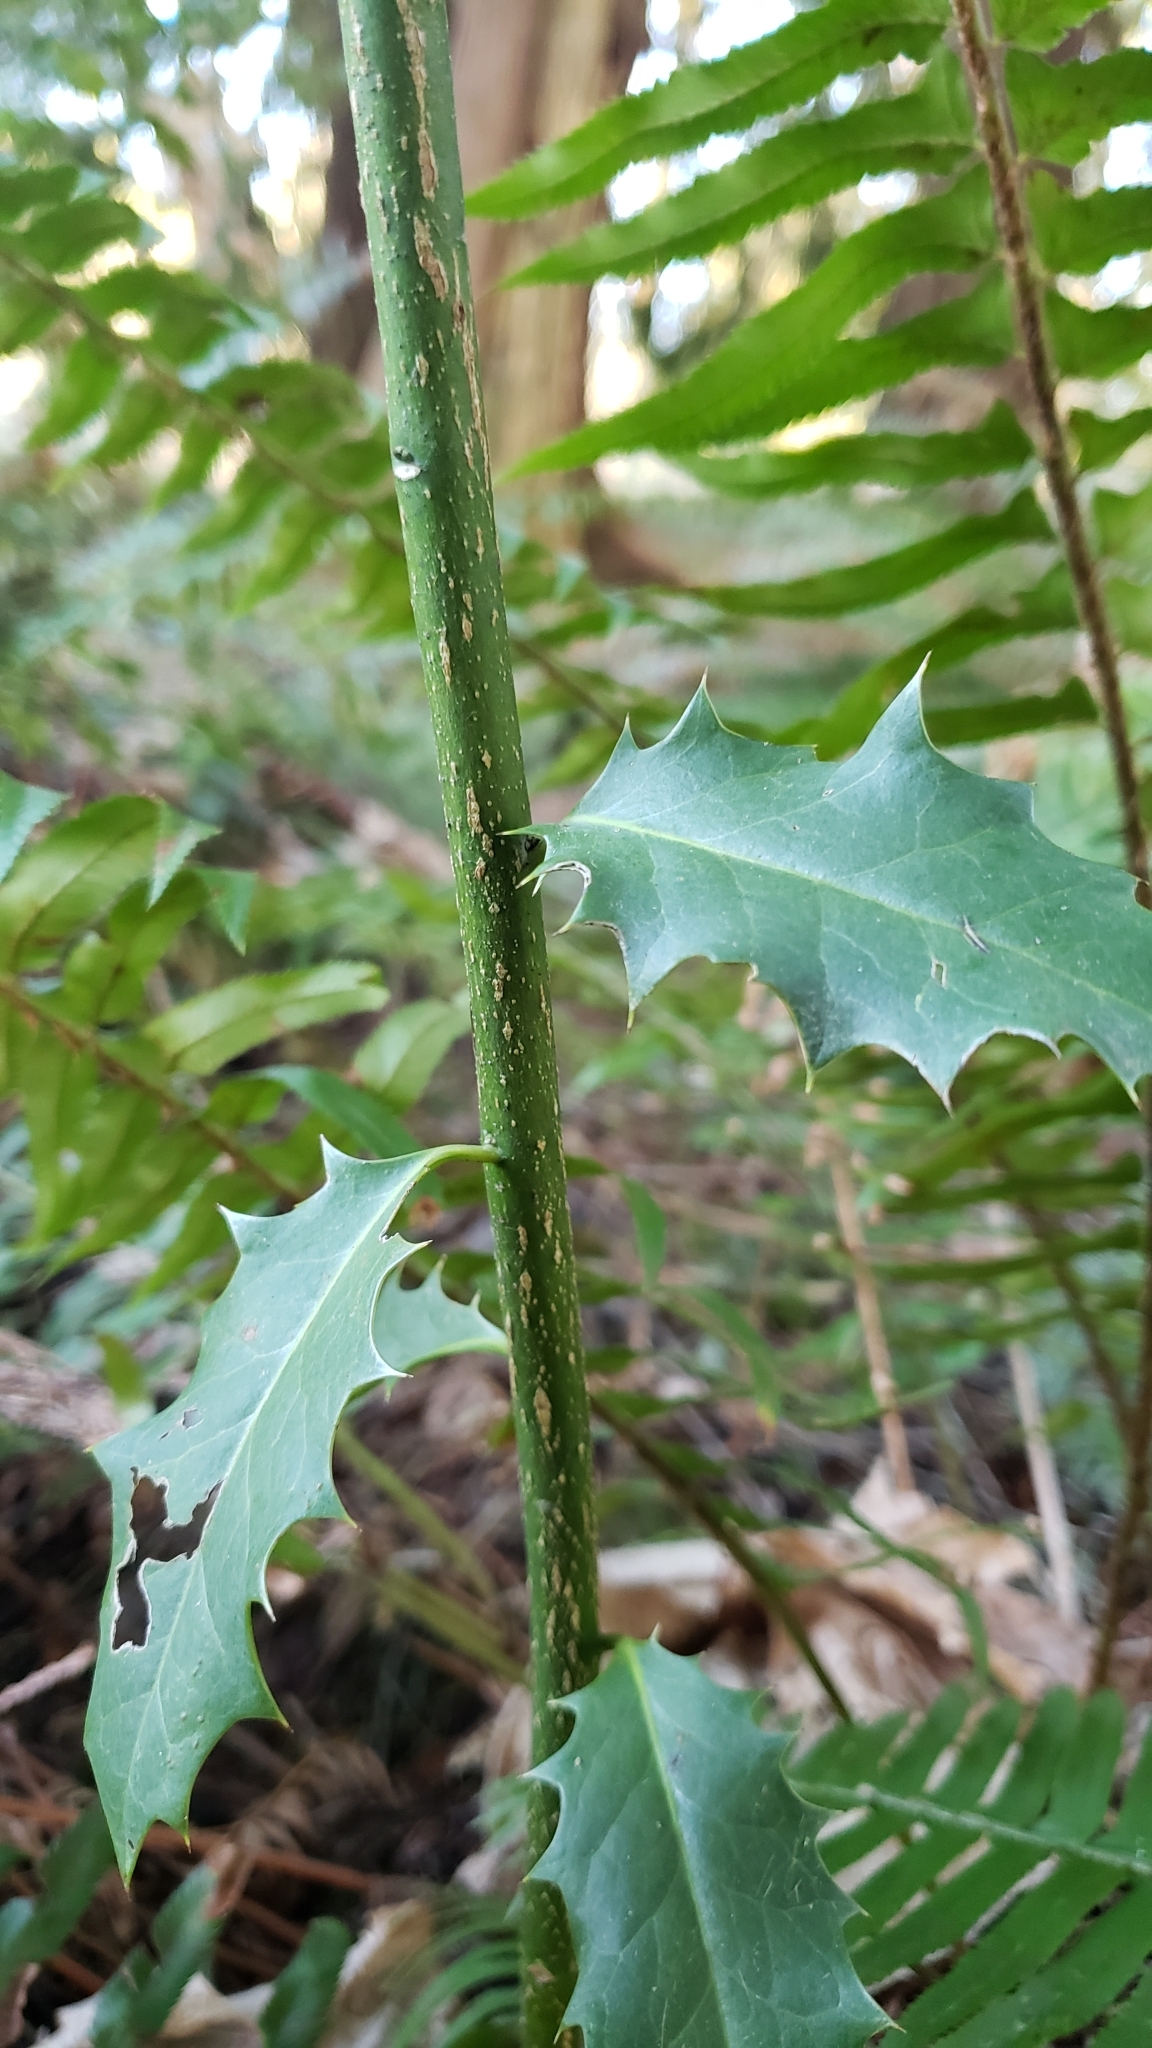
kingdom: Plantae
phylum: Tracheophyta
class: Magnoliopsida
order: Aquifoliales
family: Aquifoliaceae
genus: Ilex
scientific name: Ilex aquifolium
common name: English holly
